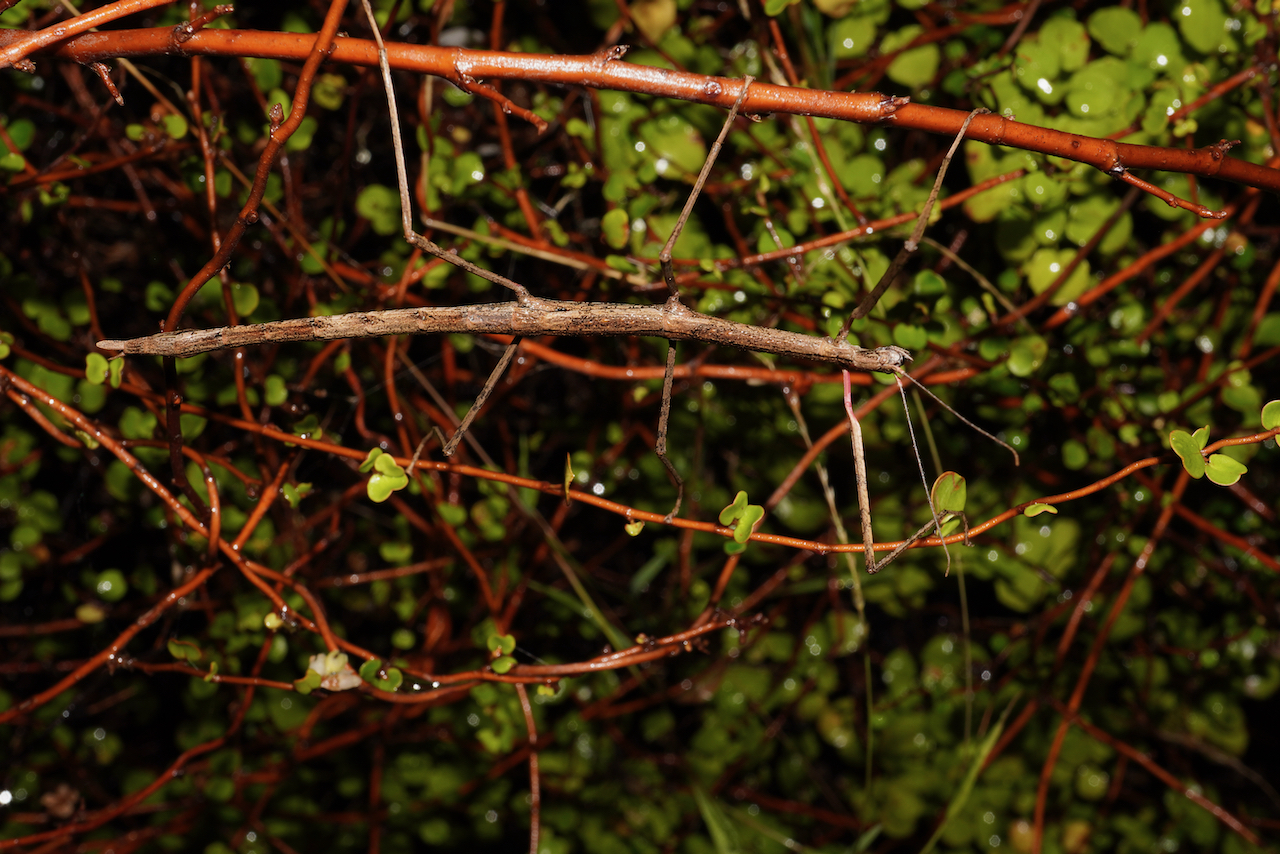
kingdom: Animalia
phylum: Arthropoda
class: Insecta
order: Phasmida
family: Phasmatidae
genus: Clitarchus
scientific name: Clitarchus hookeri
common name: Smooth stick insect
